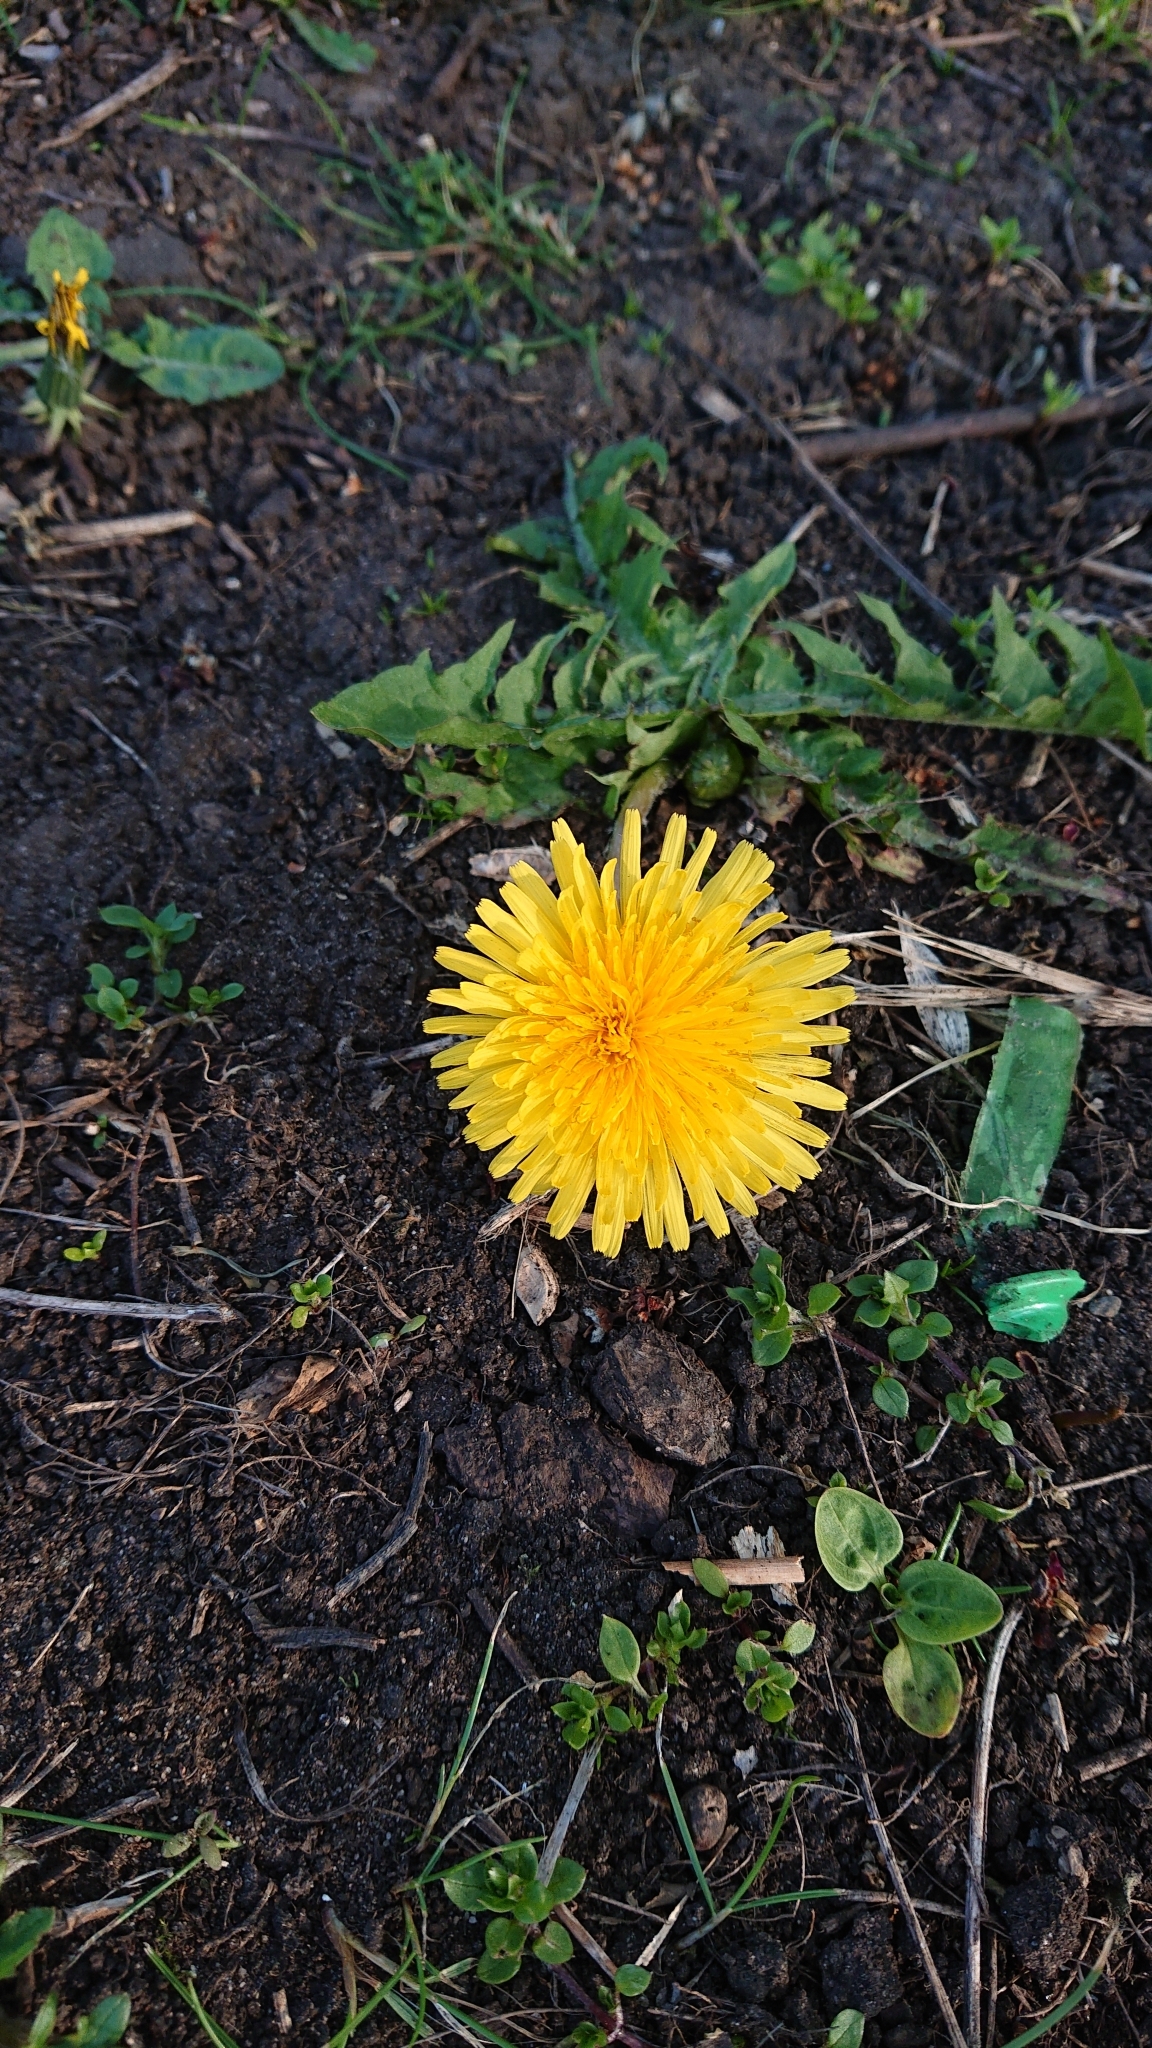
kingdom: Plantae
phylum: Tracheophyta
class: Magnoliopsida
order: Asterales
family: Asteraceae
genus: Taraxacum
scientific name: Taraxacum officinale
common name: Common dandelion
